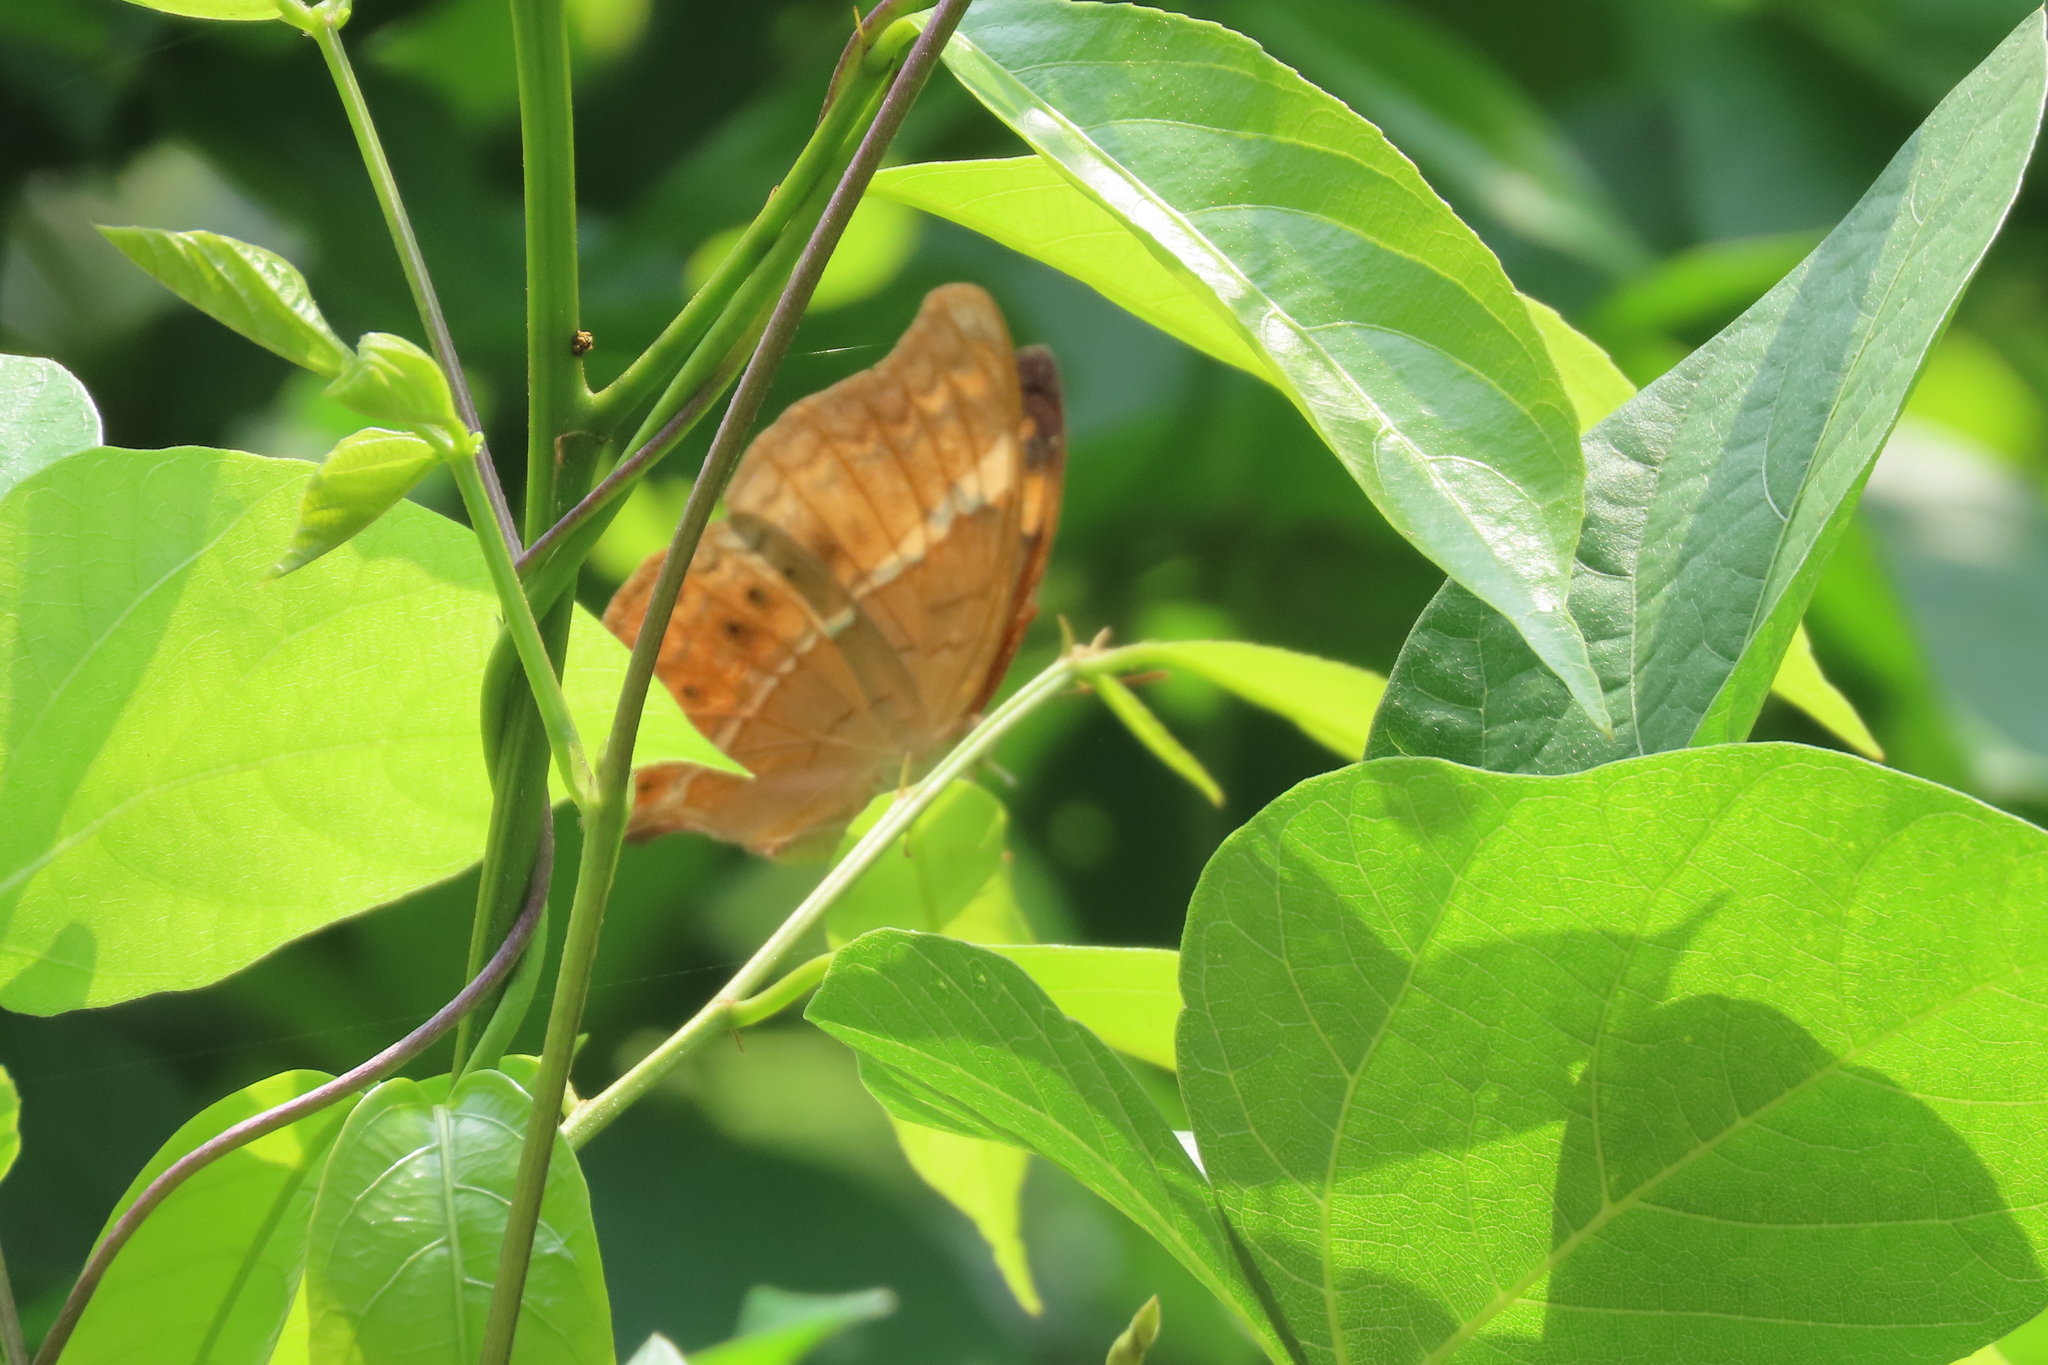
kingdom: Animalia
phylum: Arthropoda
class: Insecta
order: Lepidoptera
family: Nymphalidae
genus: Cirrochroa
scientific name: Cirrochroa thais
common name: Tamil yeoman
